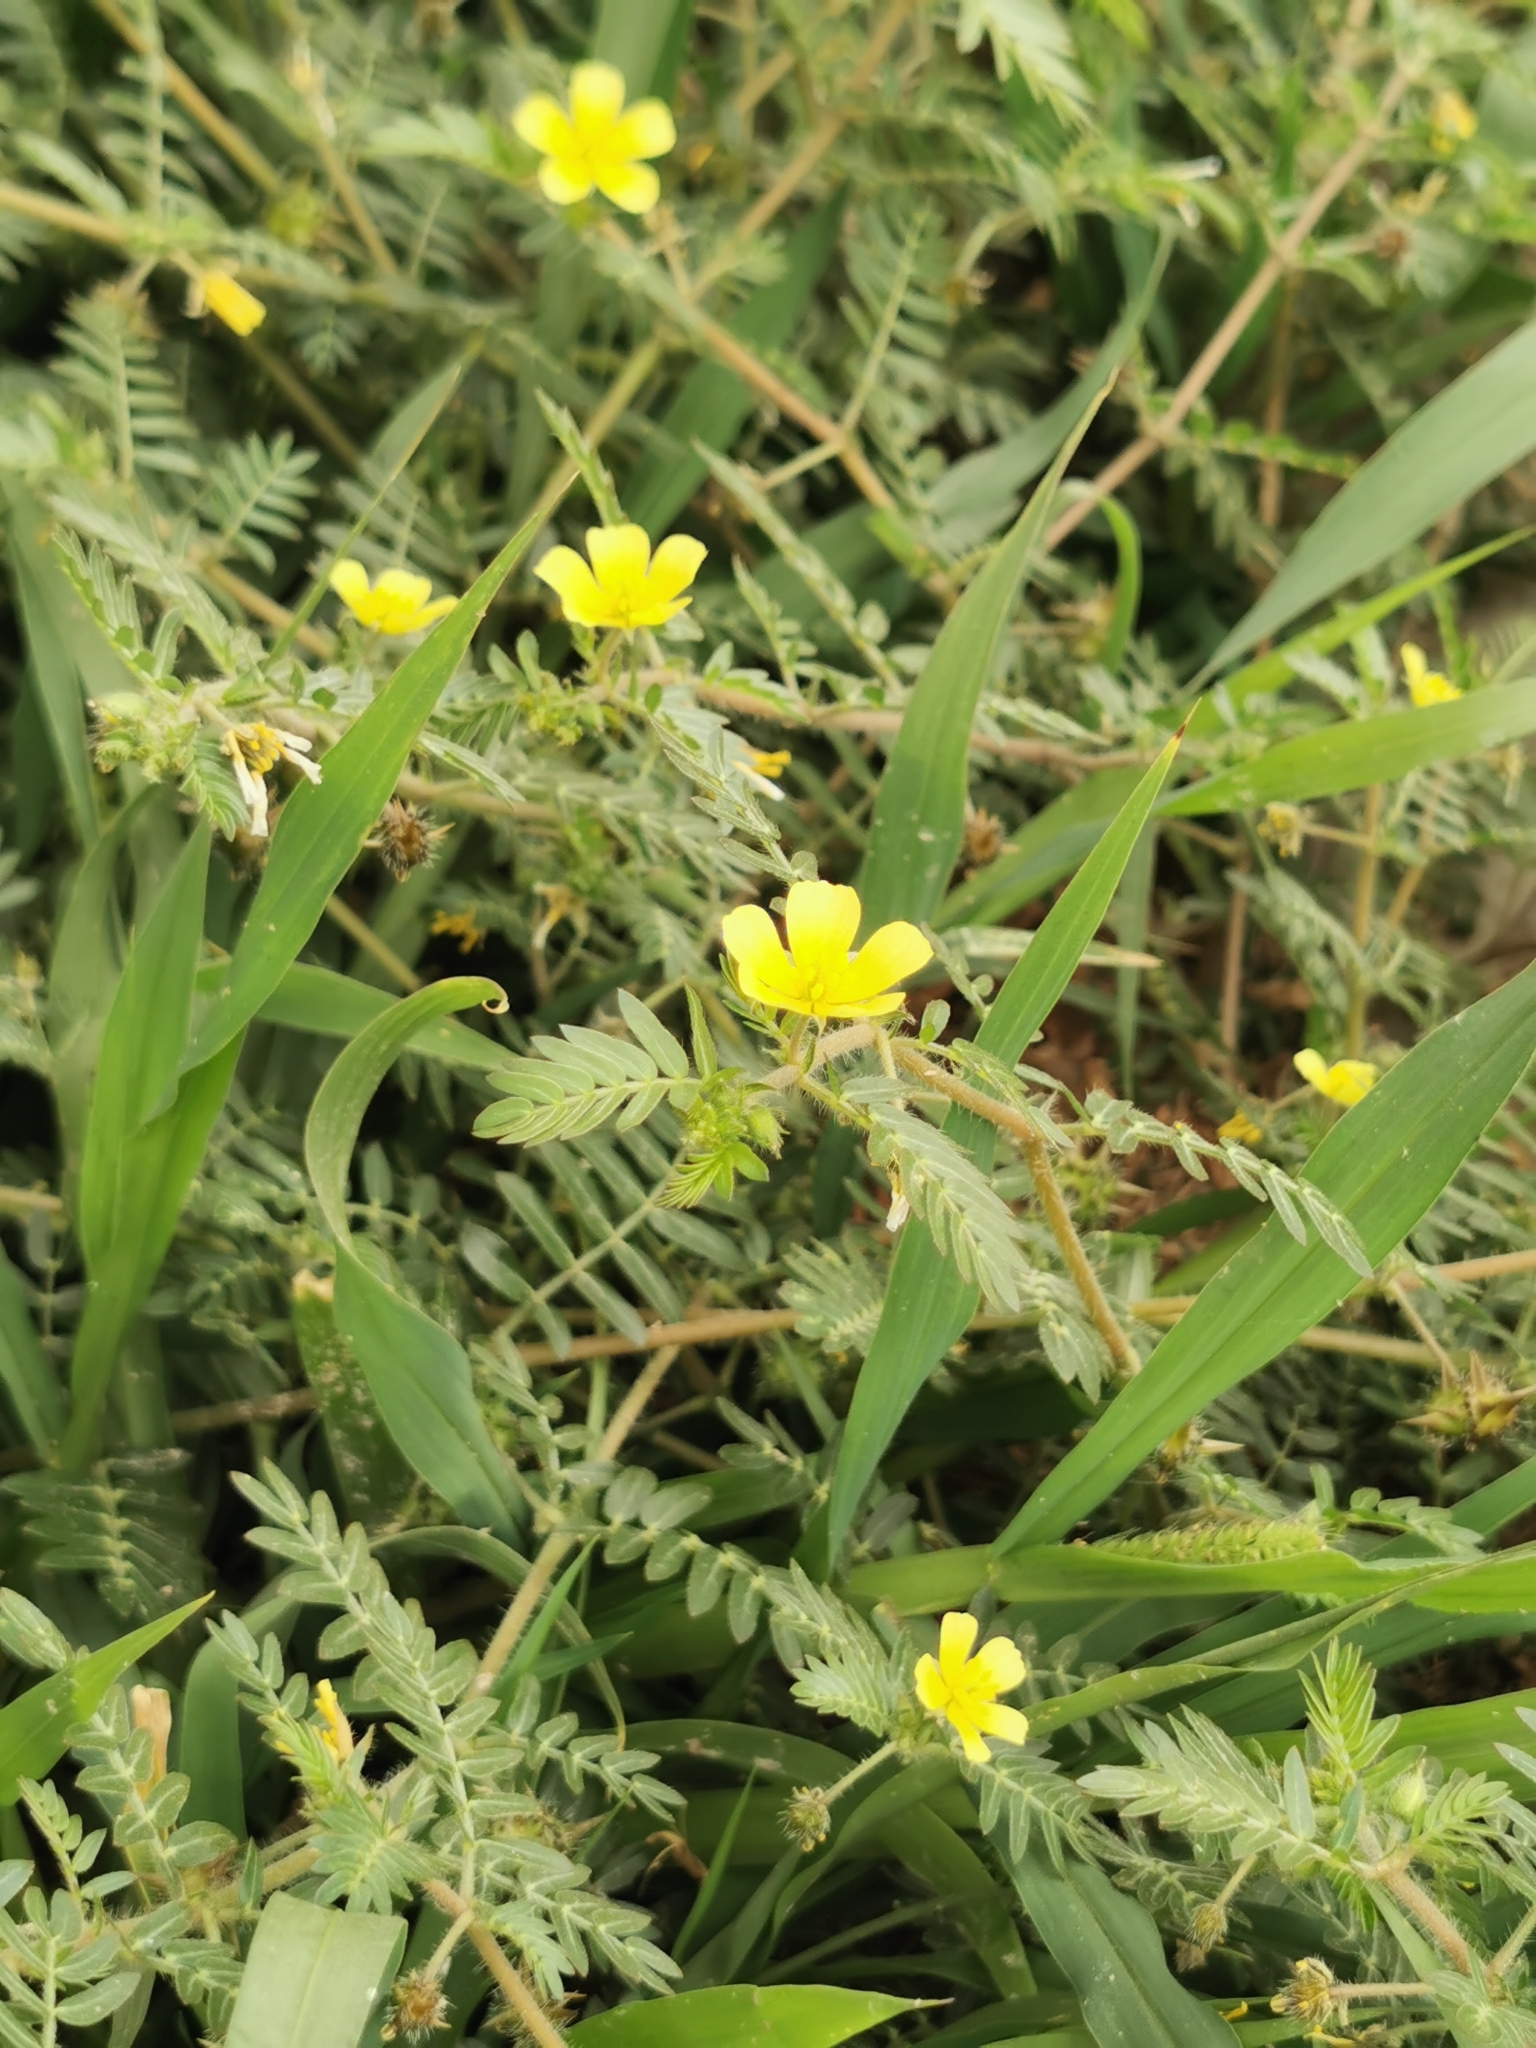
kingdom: Plantae
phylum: Tracheophyta
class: Magnoliopsida
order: Zygophyllales
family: Zygophyllaceae
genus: Tribulus
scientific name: Tribulus terrestris
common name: Puncturevine
